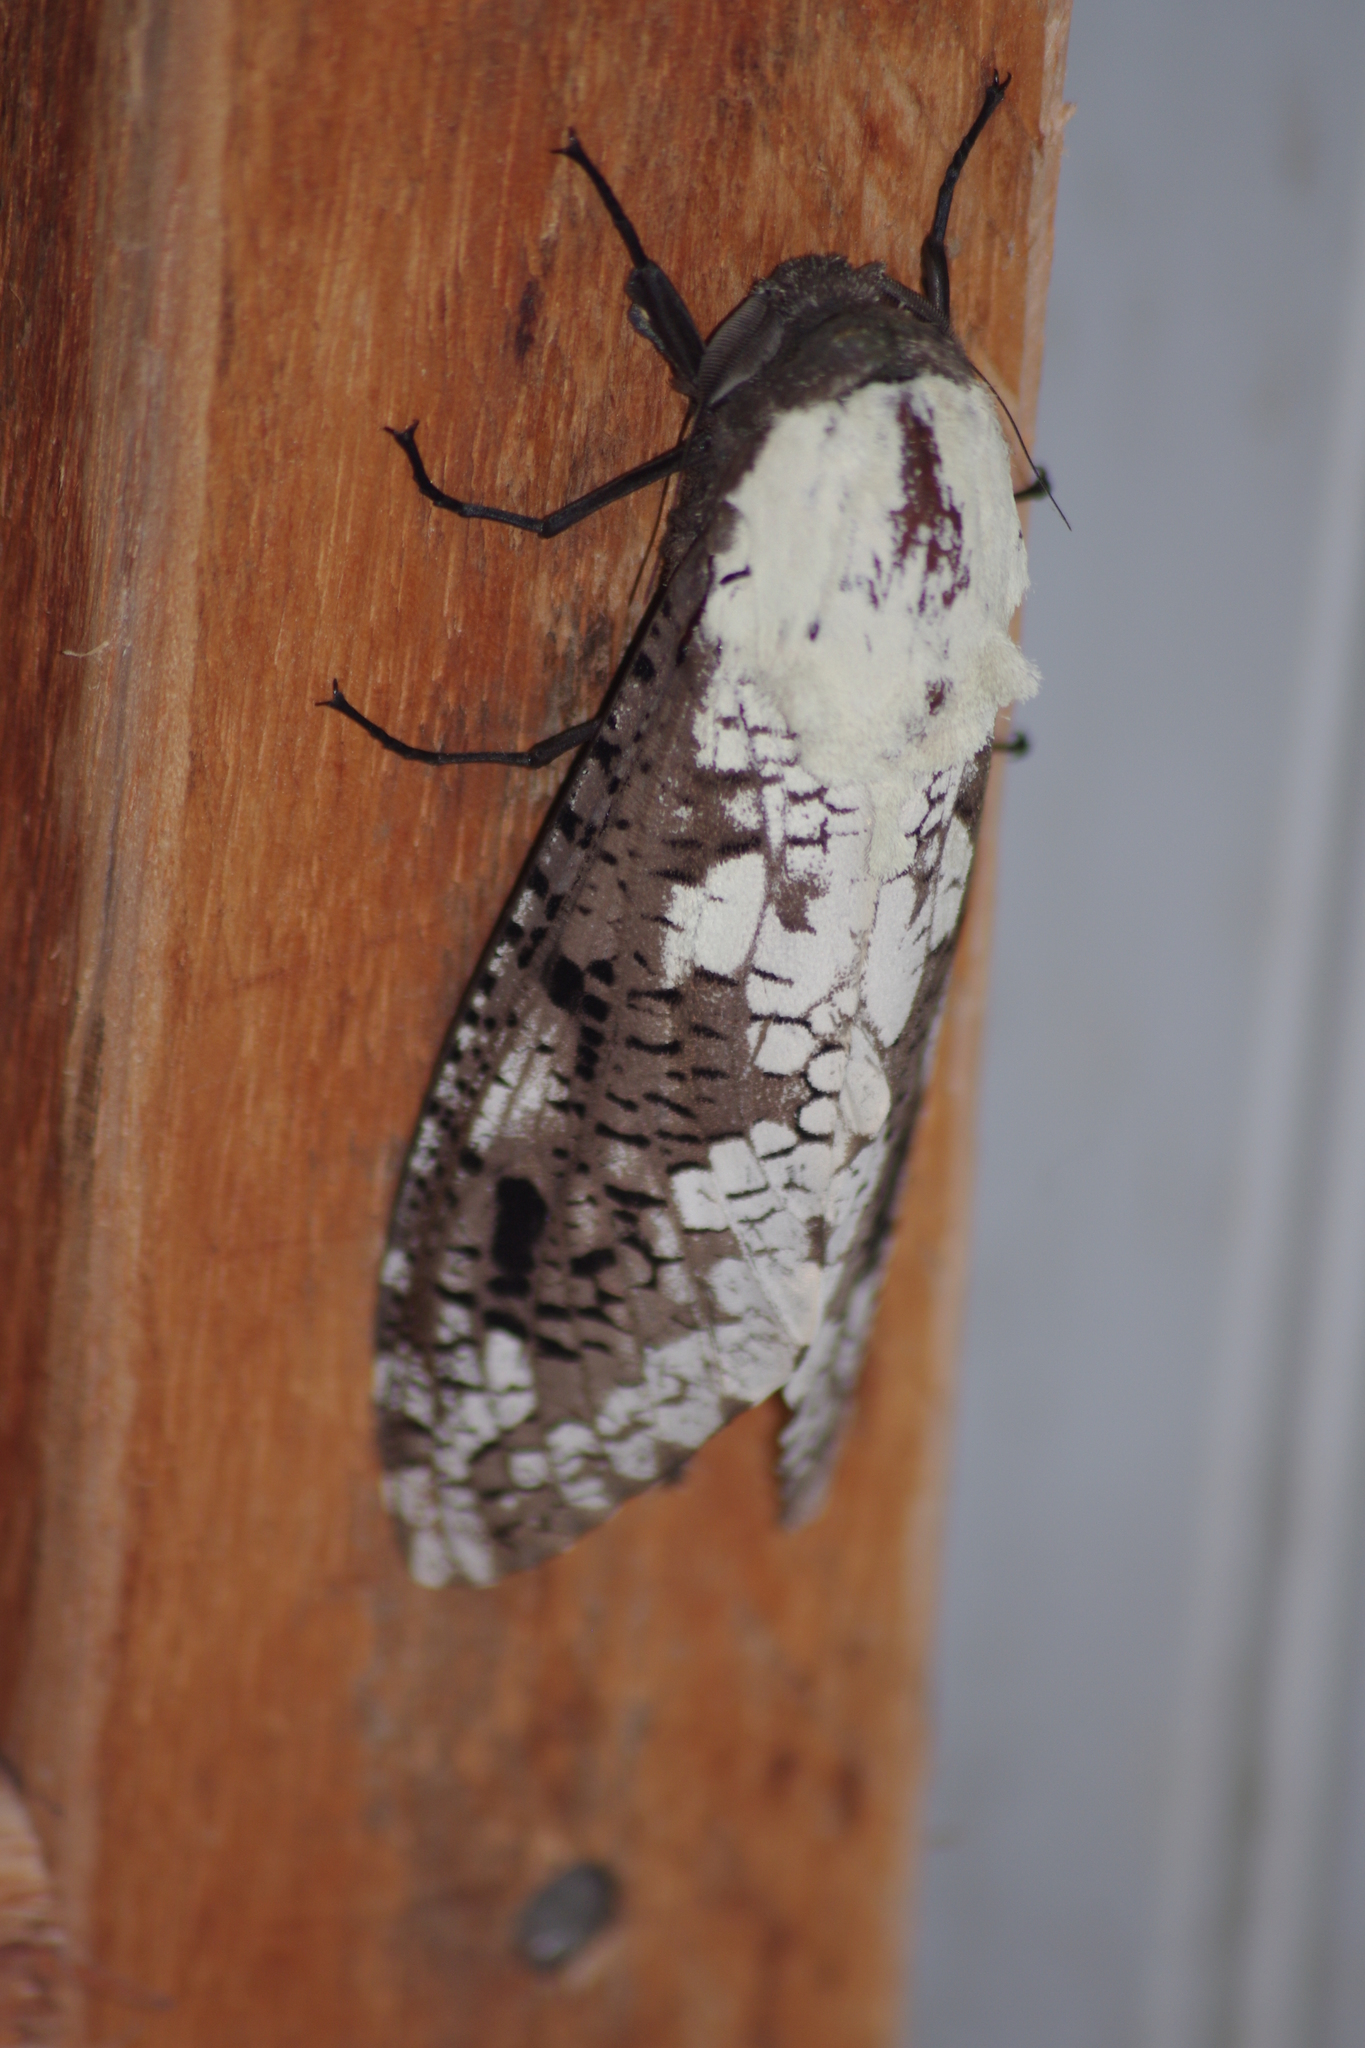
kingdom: Animalia
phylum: Arthropoda
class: Insecta
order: Lepidoptera
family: Cossidae
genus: Xyleutes
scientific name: Xyleutes persona
